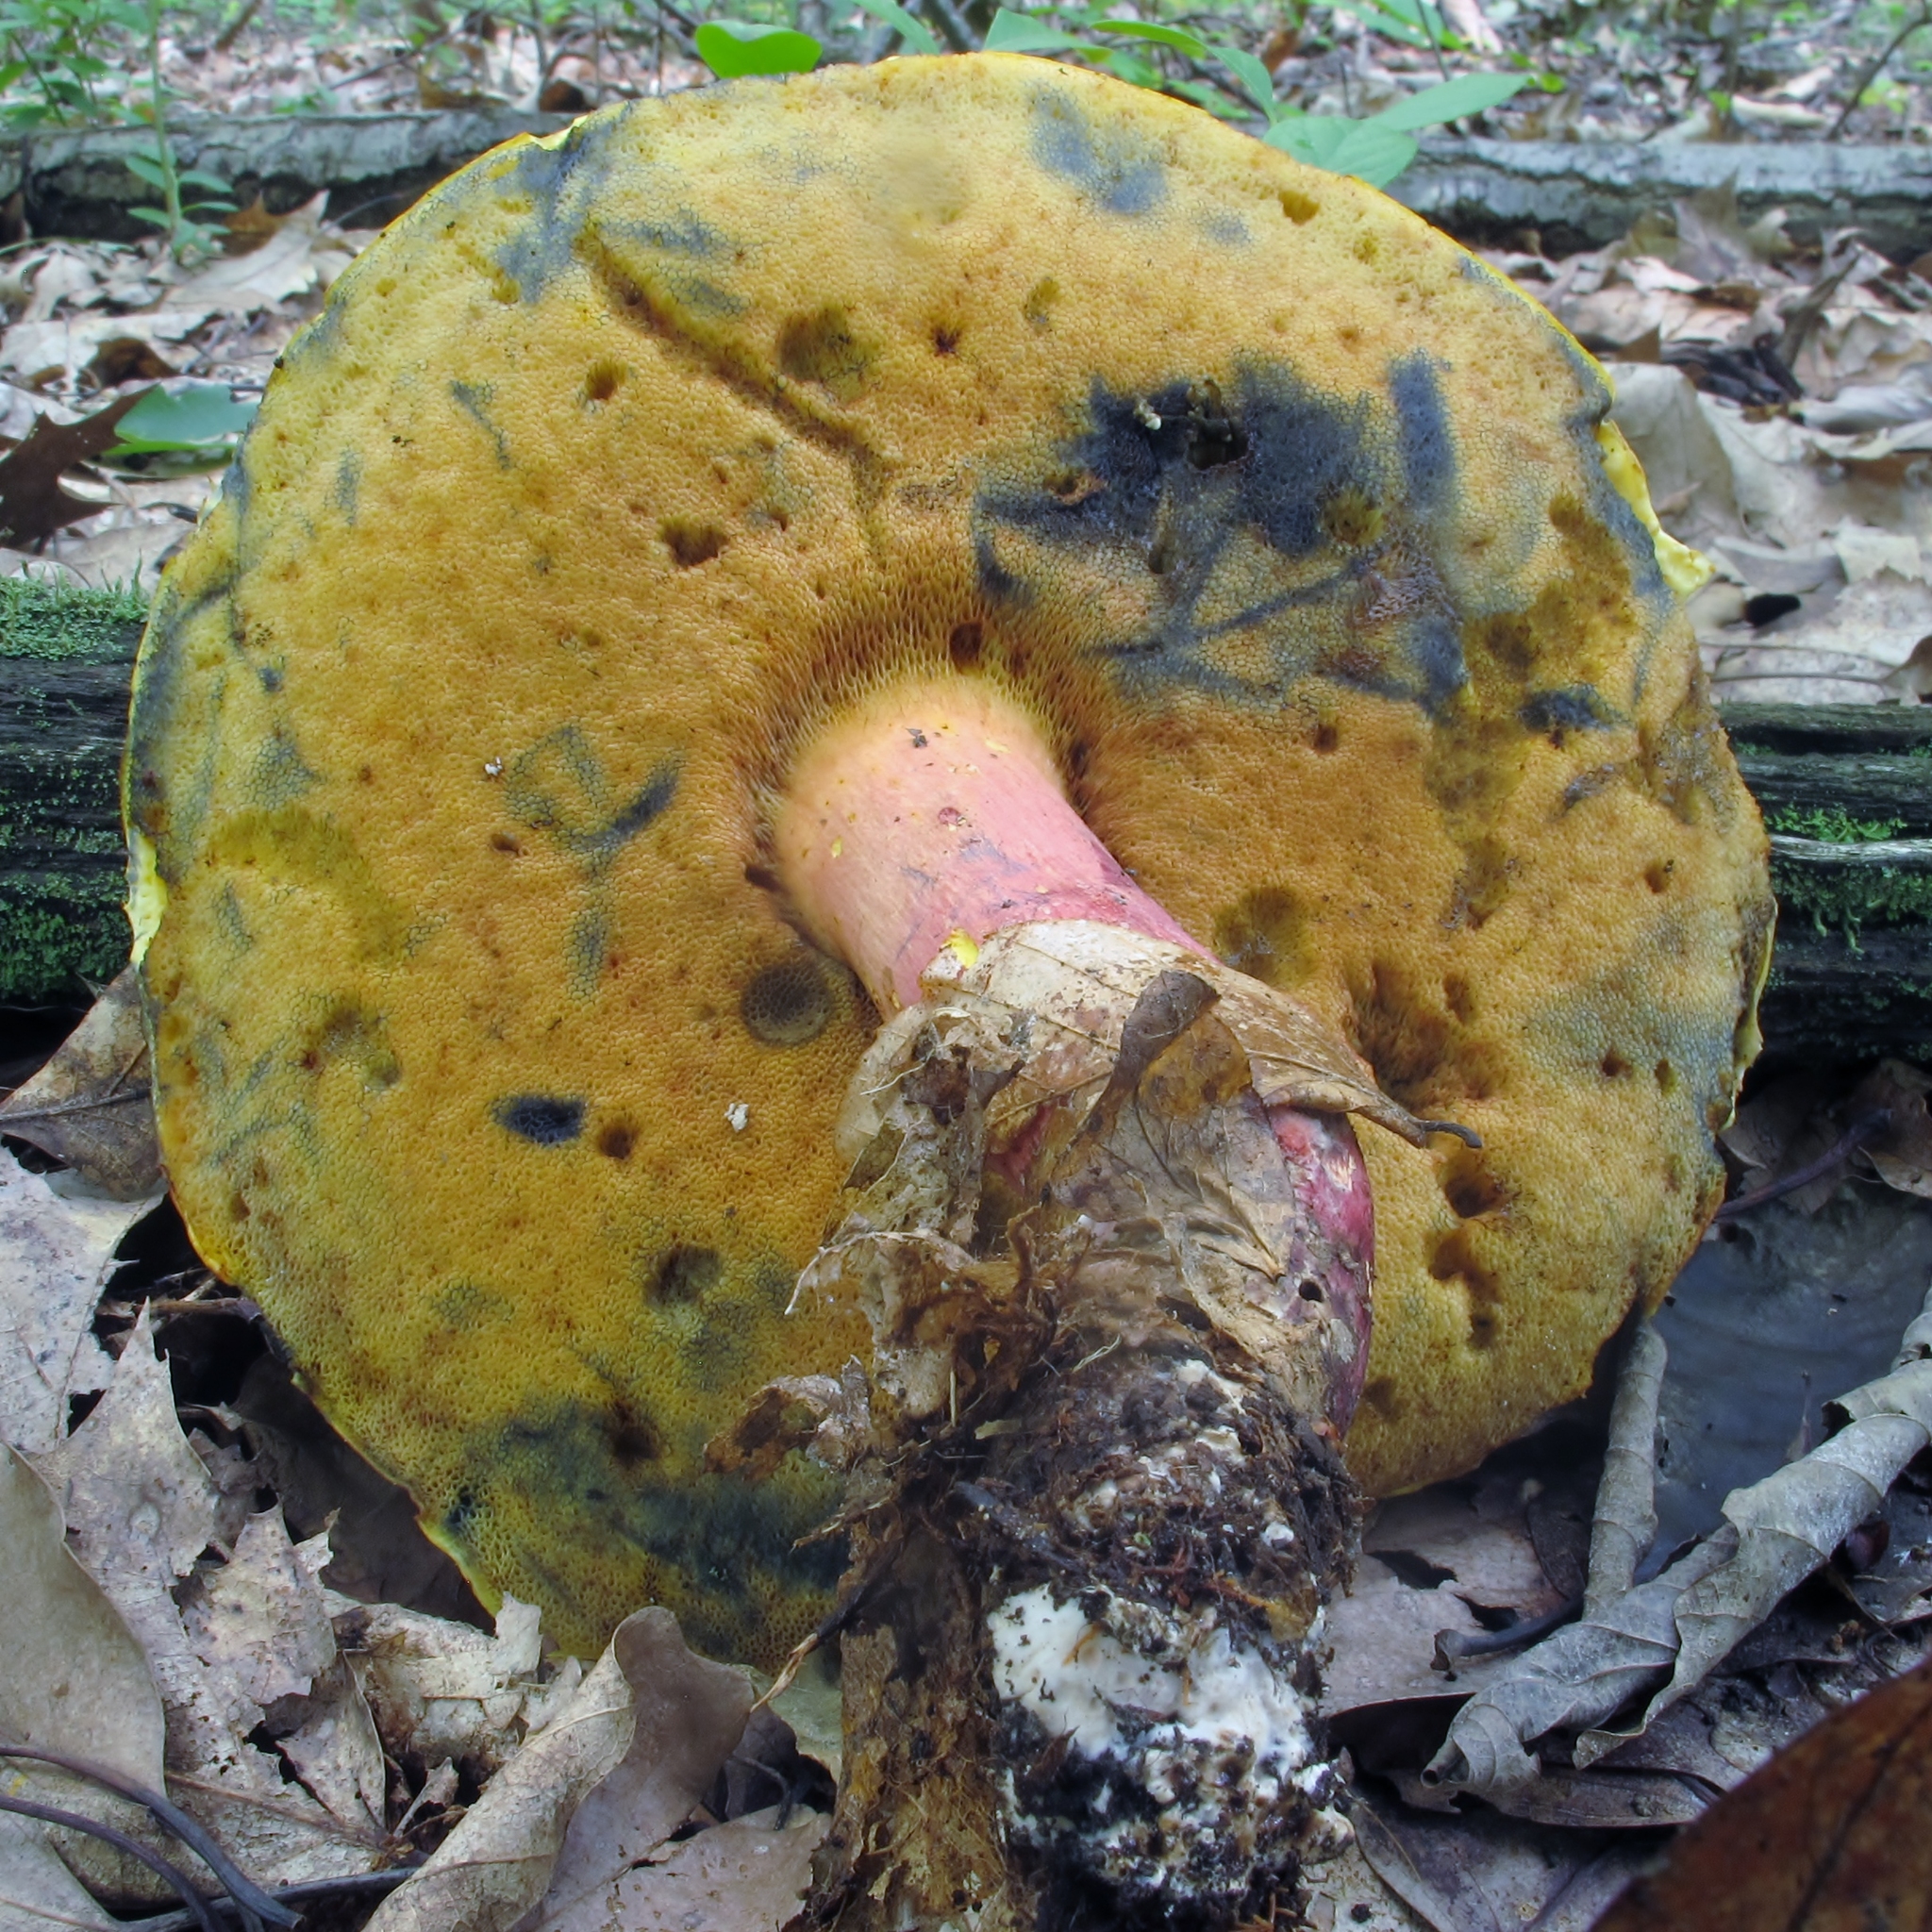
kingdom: Fungi
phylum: Basidiomycota
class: Agaricomycetes
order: Boletales
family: Boletaceae
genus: Lanmaoa
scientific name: Lanmaoa pallidorosea
